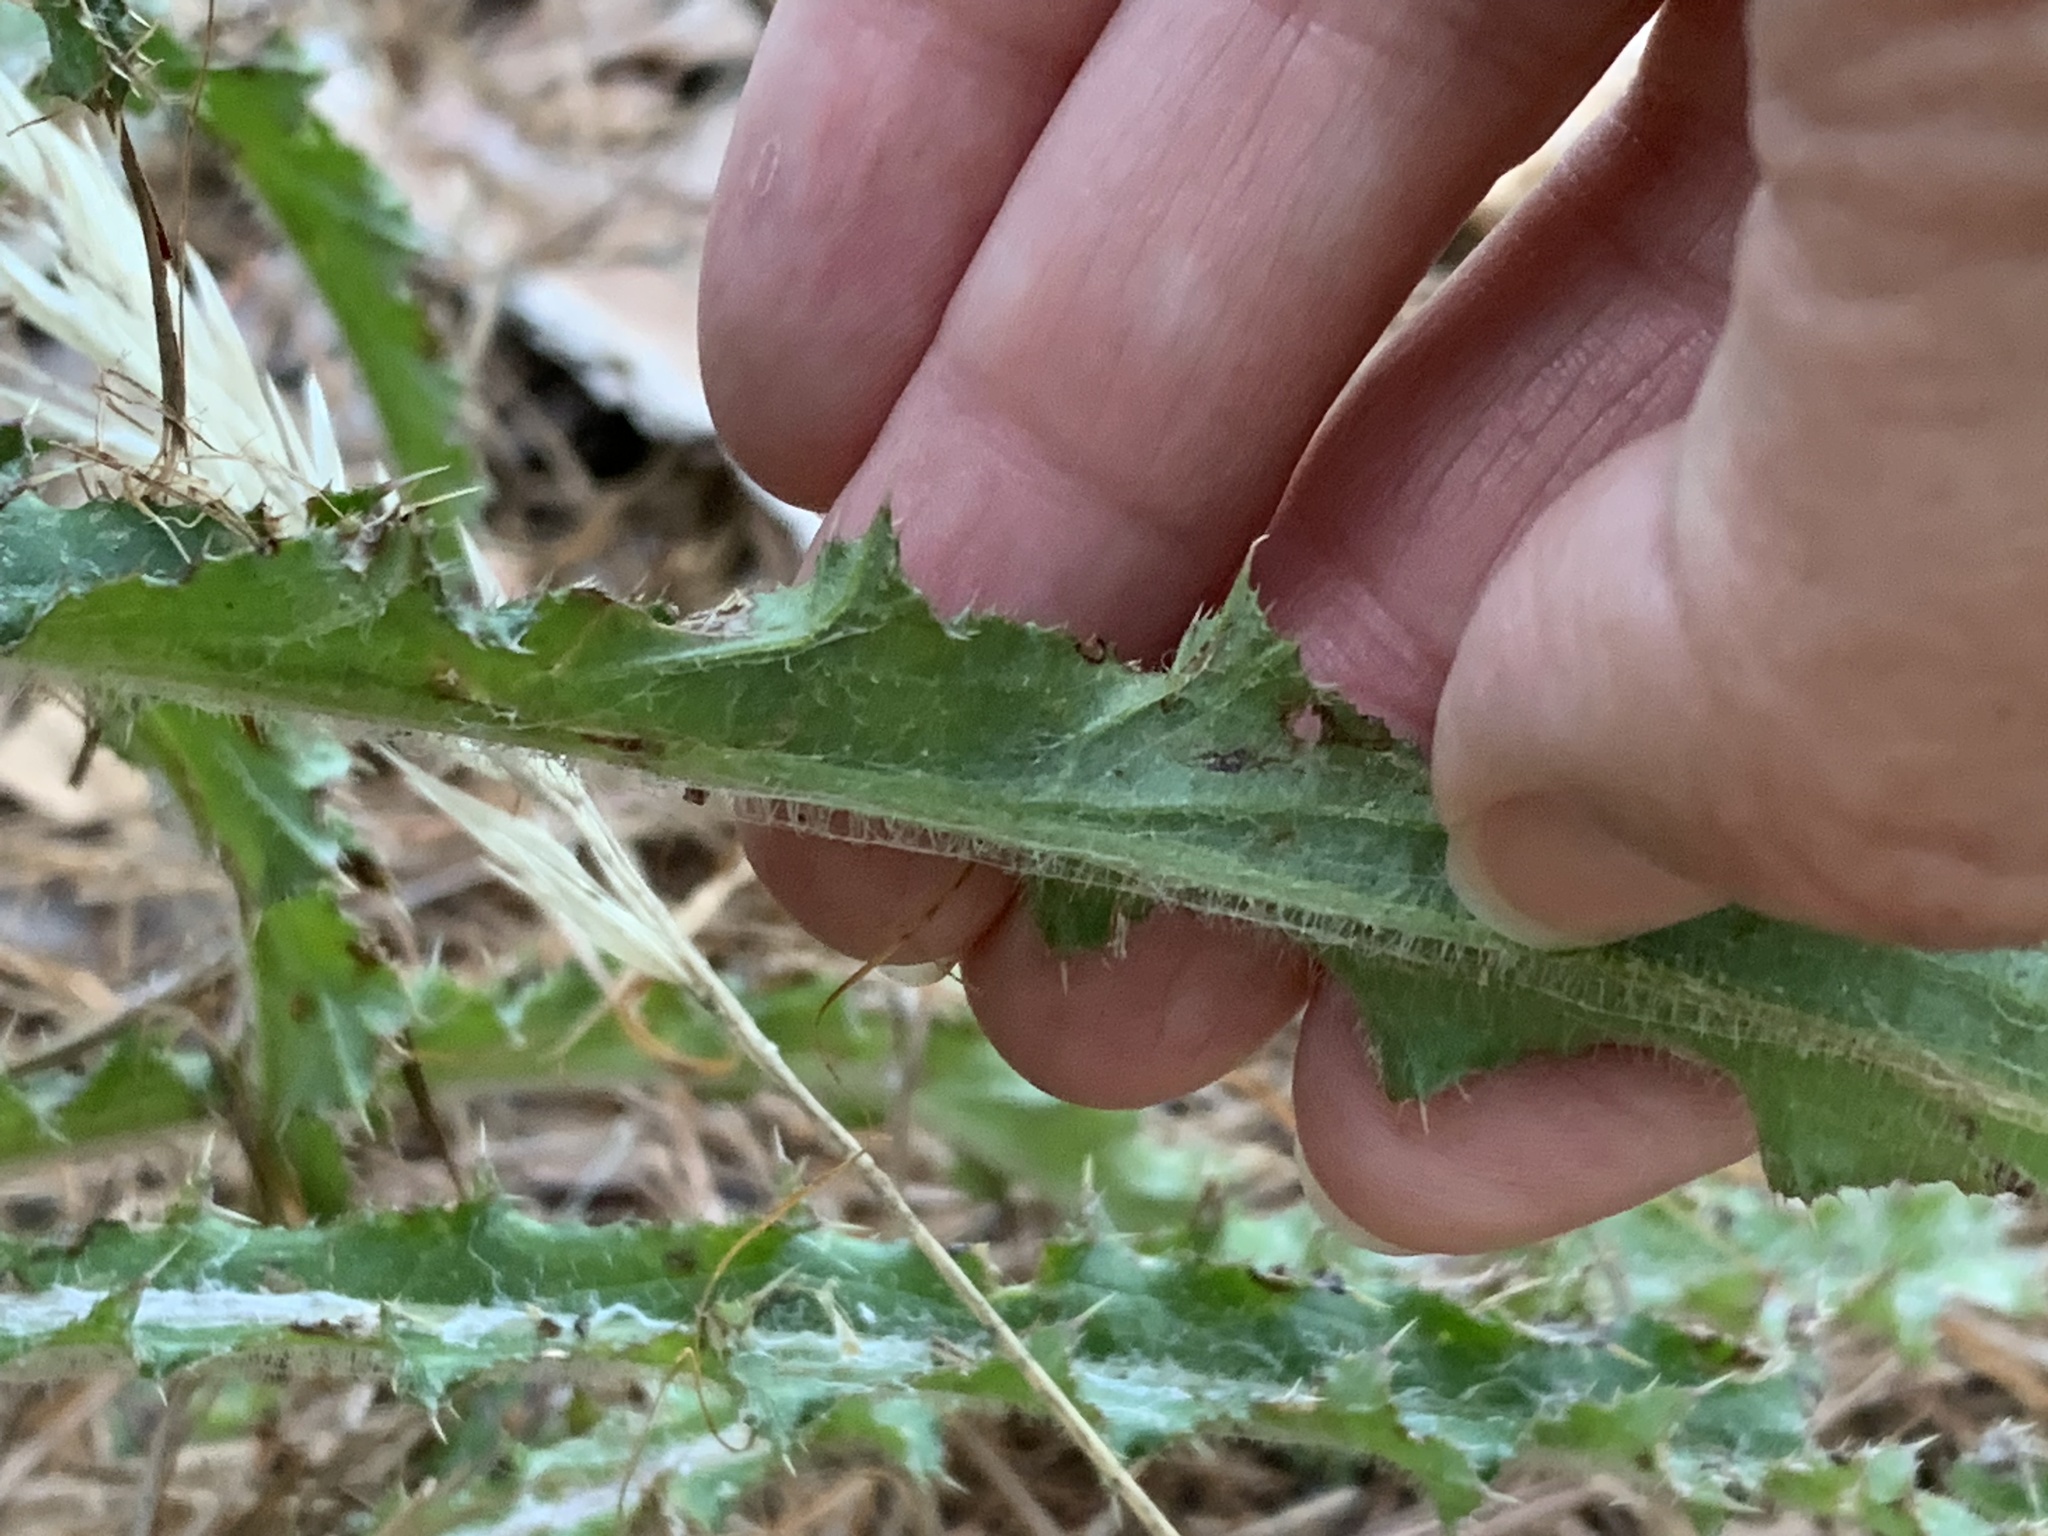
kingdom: Plantae
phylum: Tracheophyta
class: Magnoliopsida
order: Asterales
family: Asteraceae
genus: Cirsium
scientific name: Cirsium repandum
